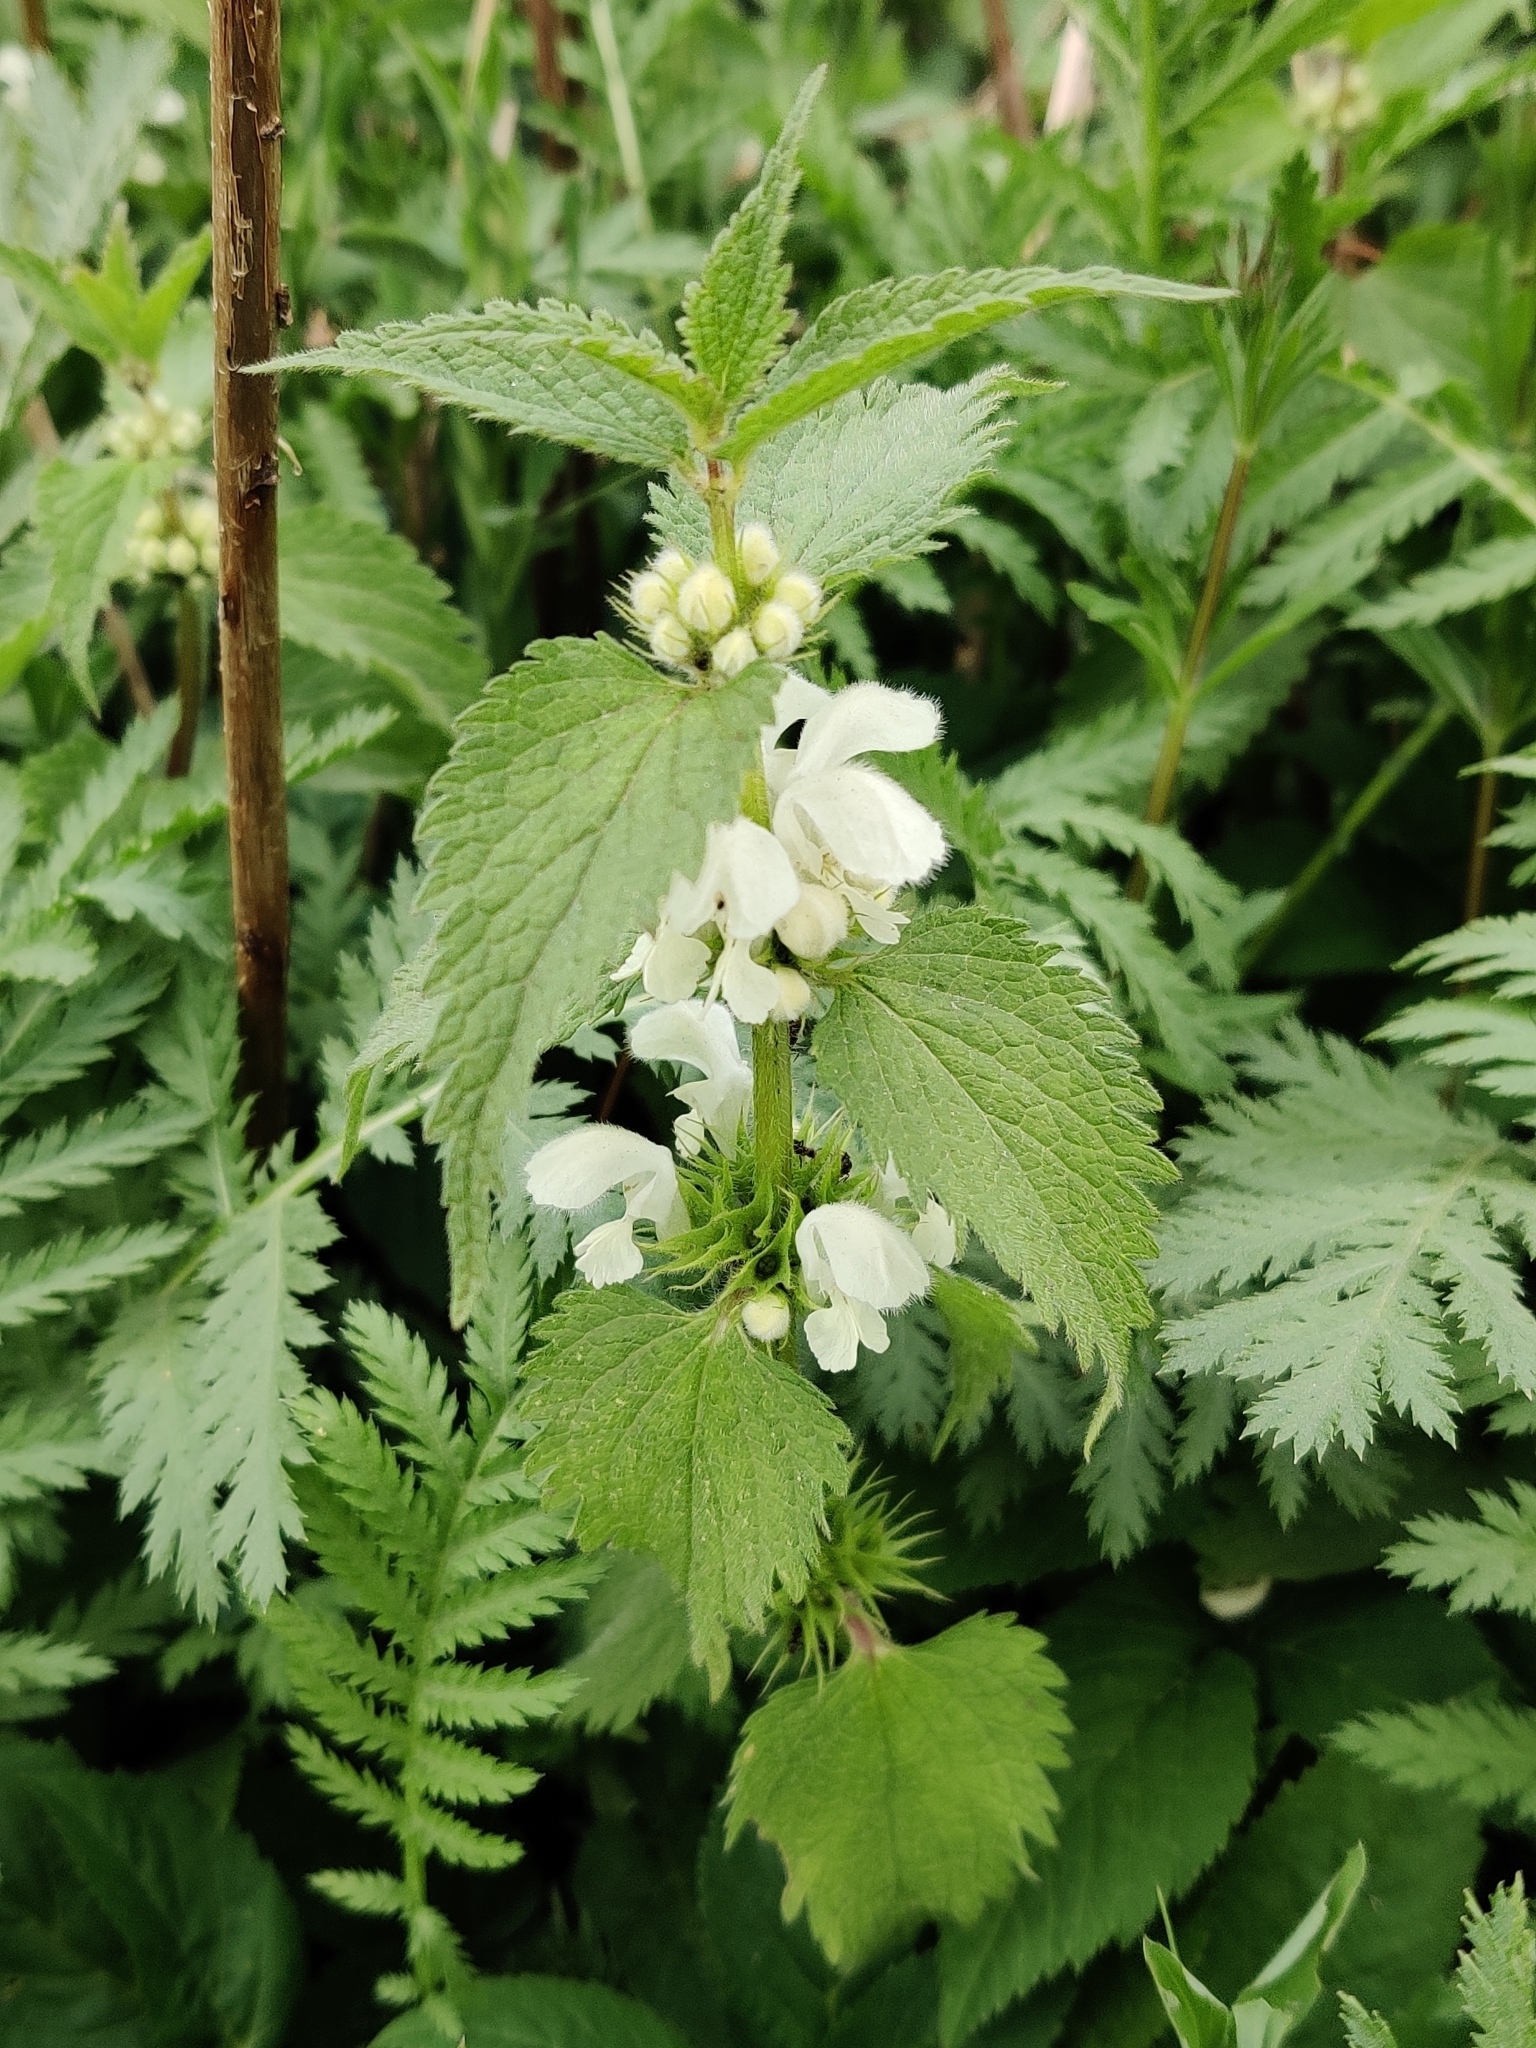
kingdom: Plantae
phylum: Tracheophyta
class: Magnoliopsida
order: Lamiales
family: Lamiaceae
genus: Lamium
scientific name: Lamium album
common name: White dead-nettle
